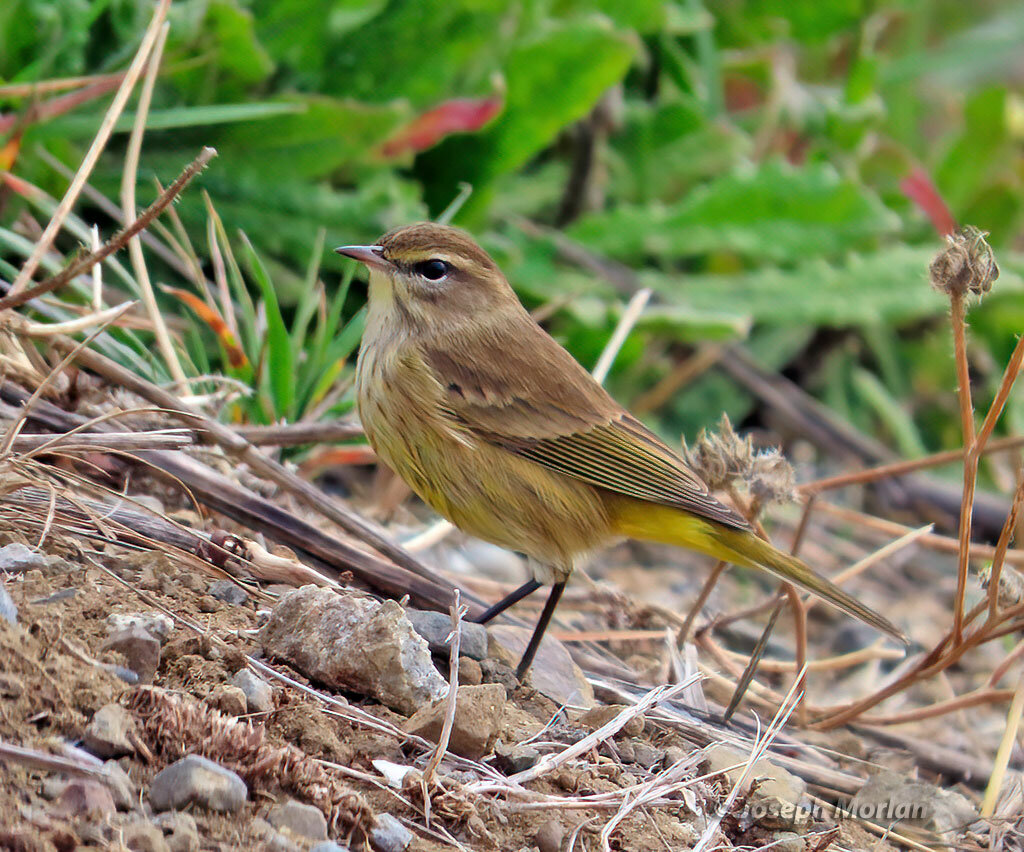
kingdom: Animalia
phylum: Chordata
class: Aves
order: Passeriformes
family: Parulidae
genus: Setophaga
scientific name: Setophaga palmarum
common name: Palm warbler
